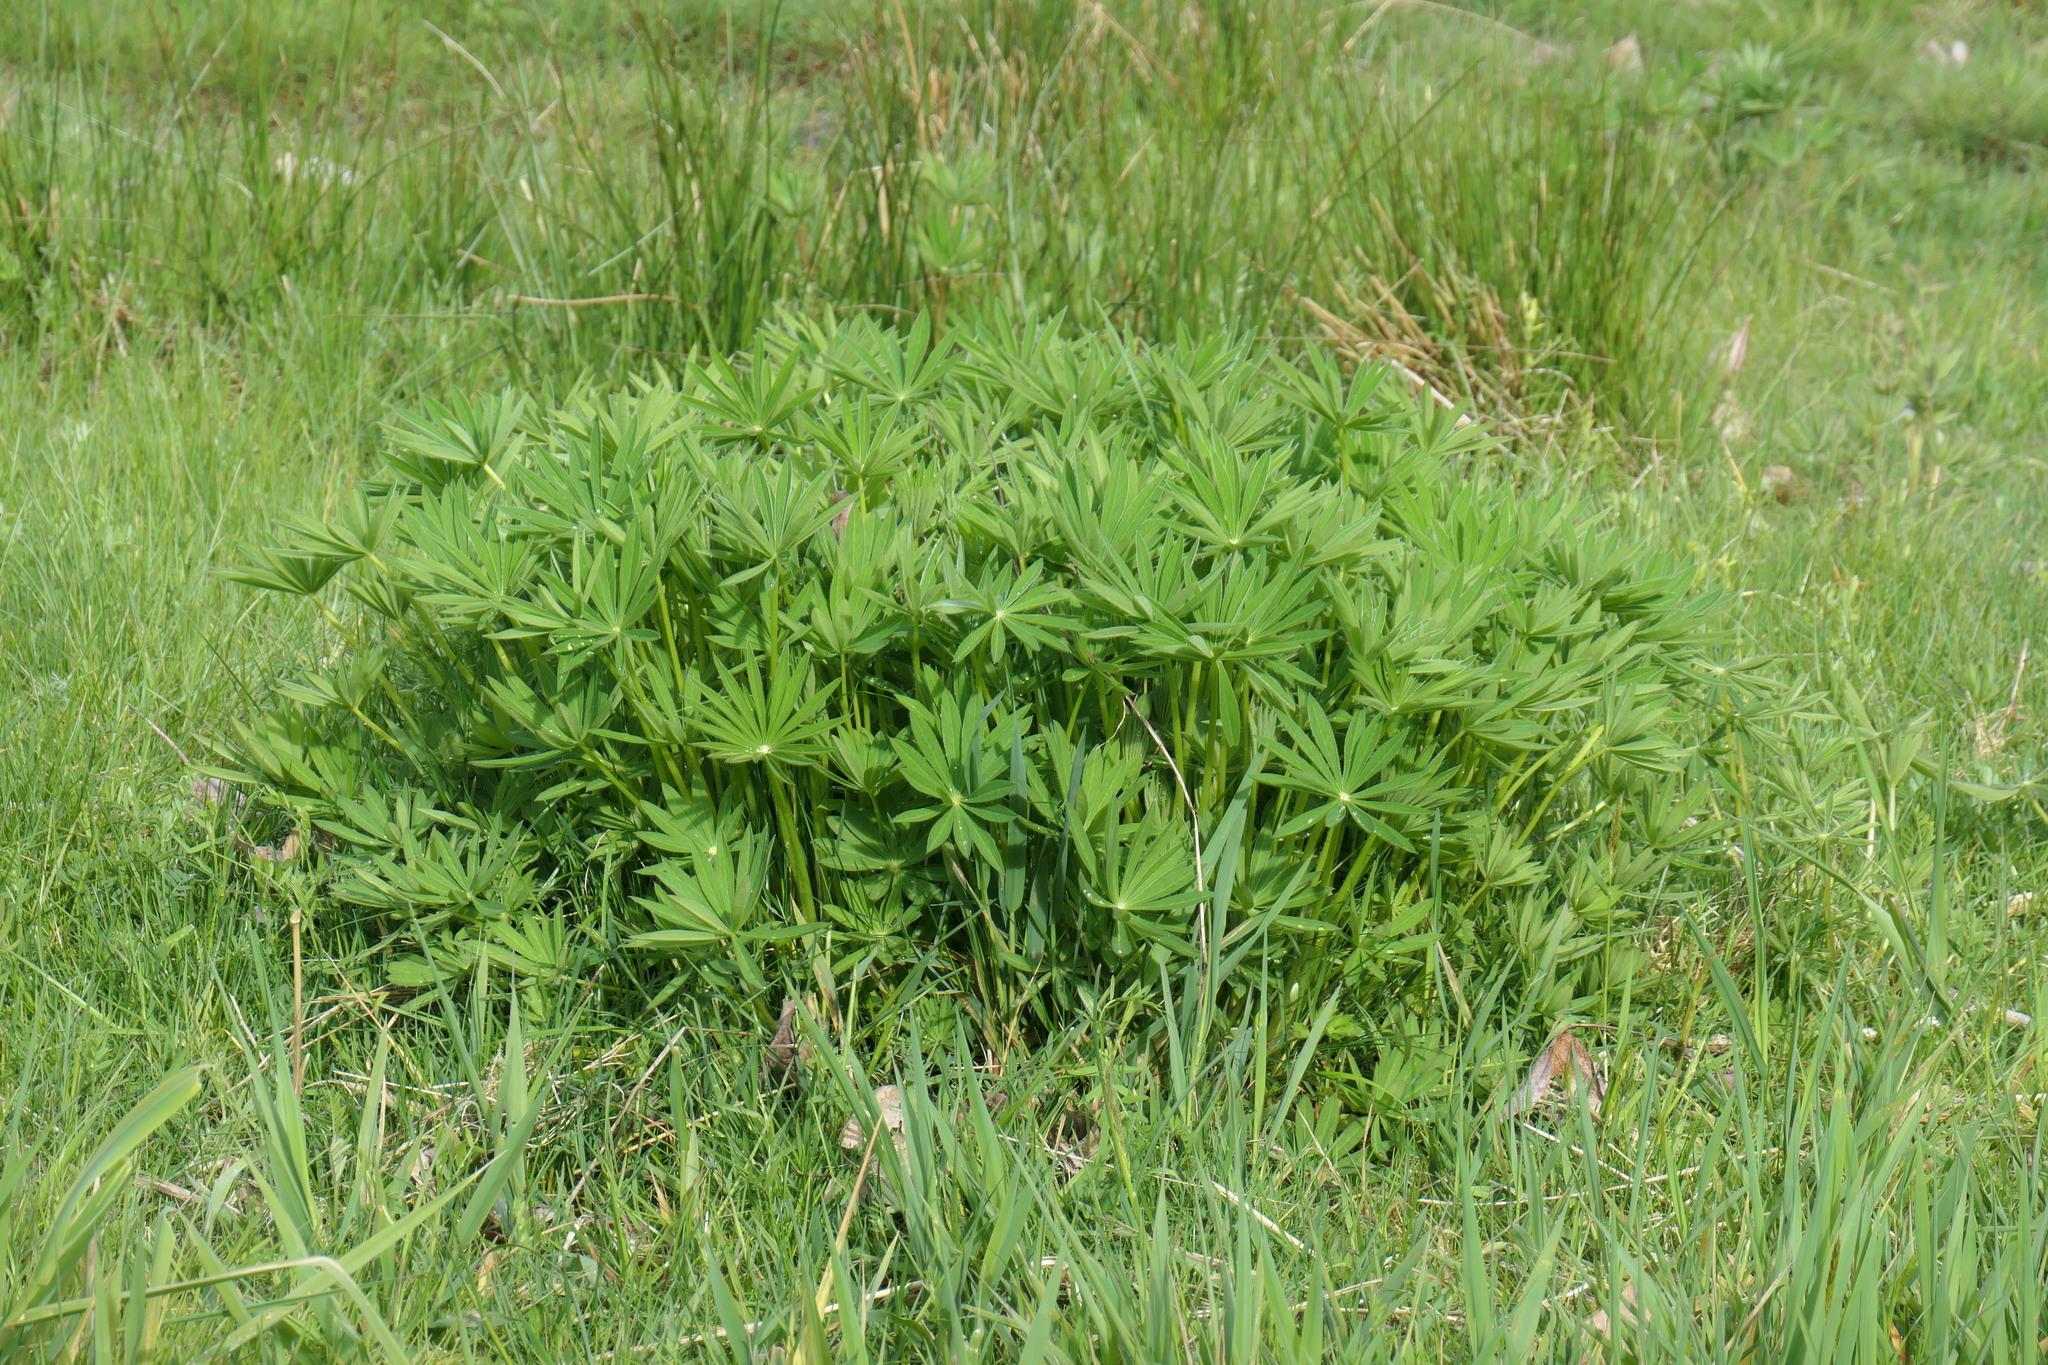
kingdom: Plantae
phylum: Tracheophyta
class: Magnoliopsida
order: Fabales
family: Fabaceae
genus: Lupinus
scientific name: Lupinus polyphyllus
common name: Garden lupin
